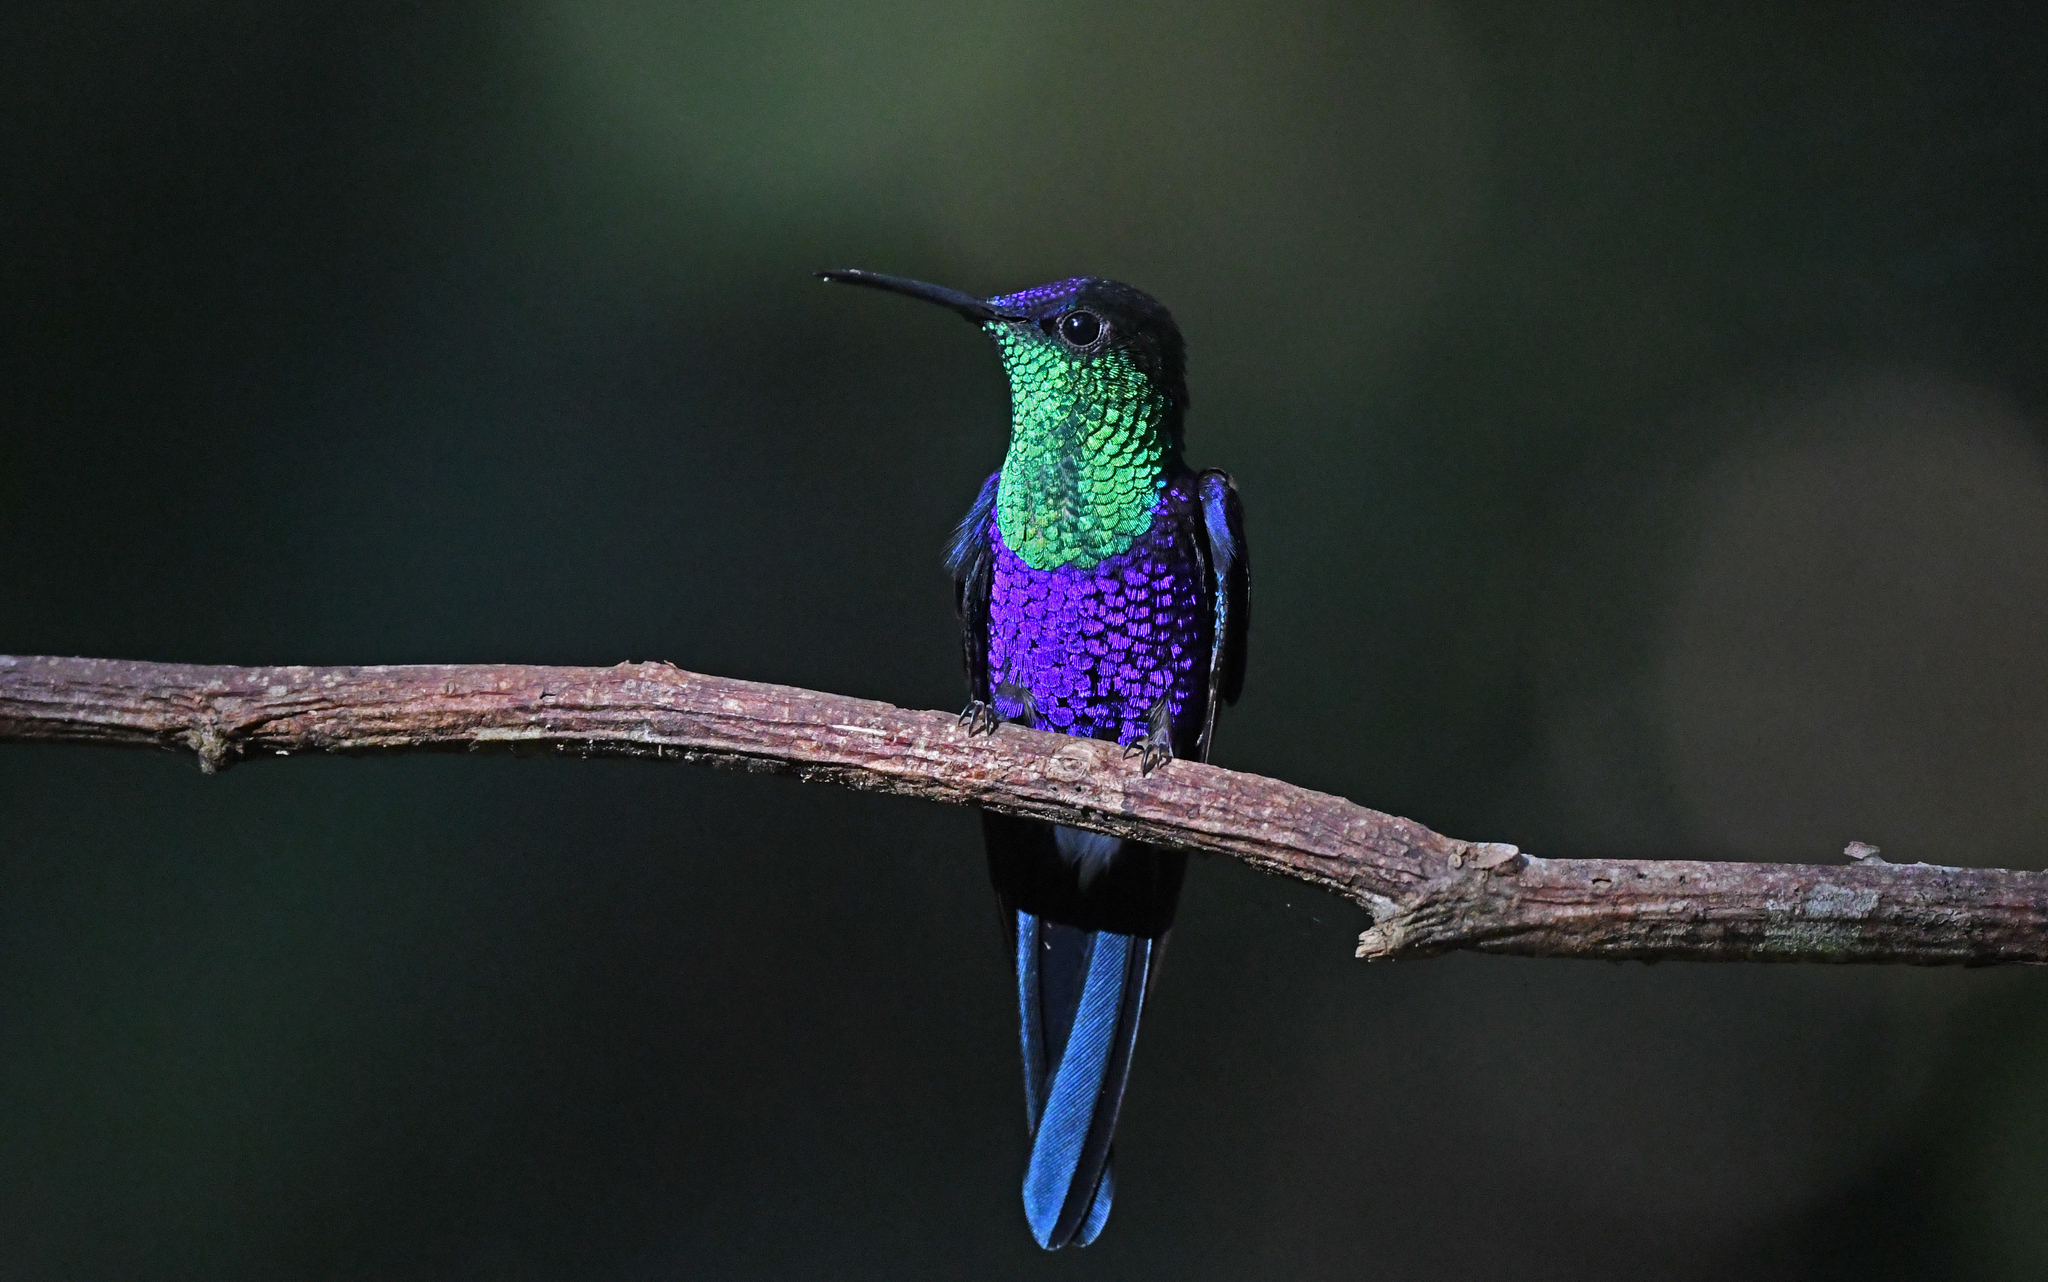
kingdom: Animalia
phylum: Chordata
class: Aves
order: Apodiformes
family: Trochilidae
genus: Thalurania
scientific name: Thalurania colombica
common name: Crowned woodnymph
